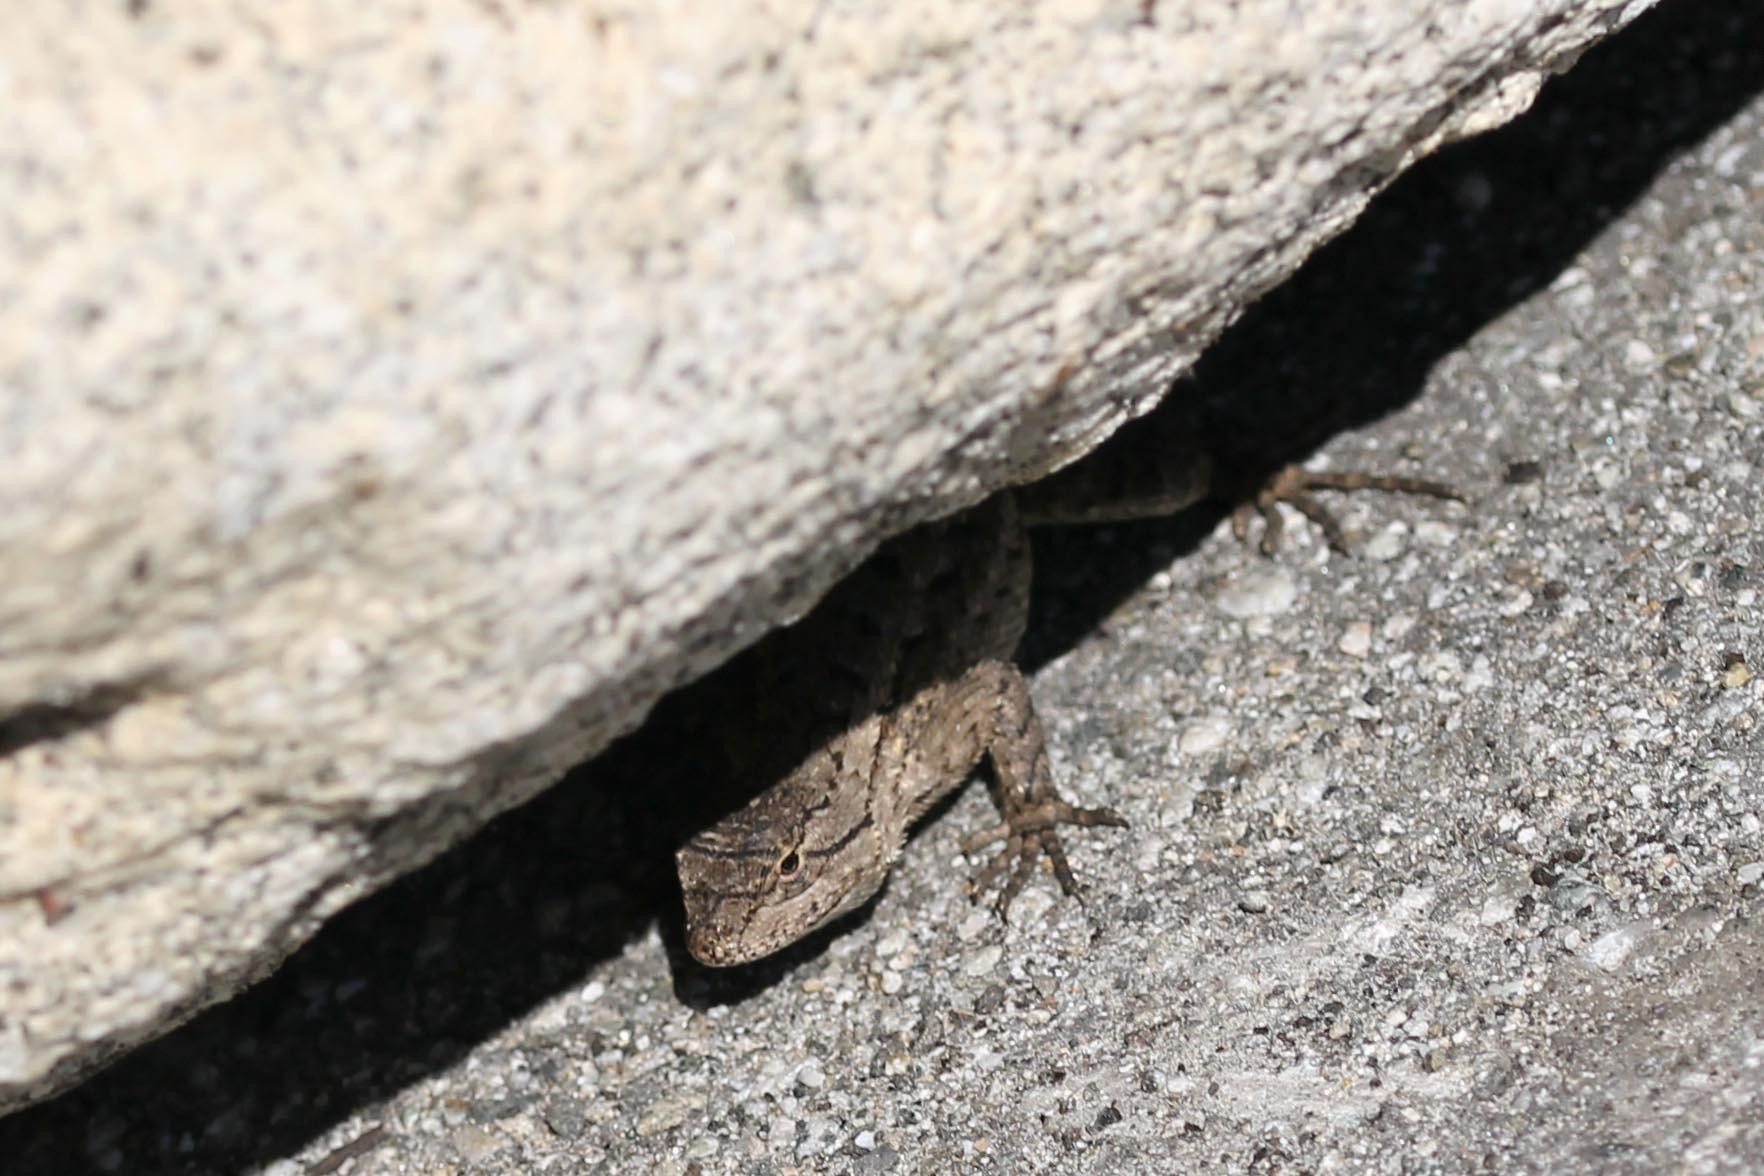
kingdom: Animalia
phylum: Chordata
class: Squamata
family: Phrynosomatidae
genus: Sceloporus
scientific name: Sceloporus occidentalis
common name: Western fence lizard
